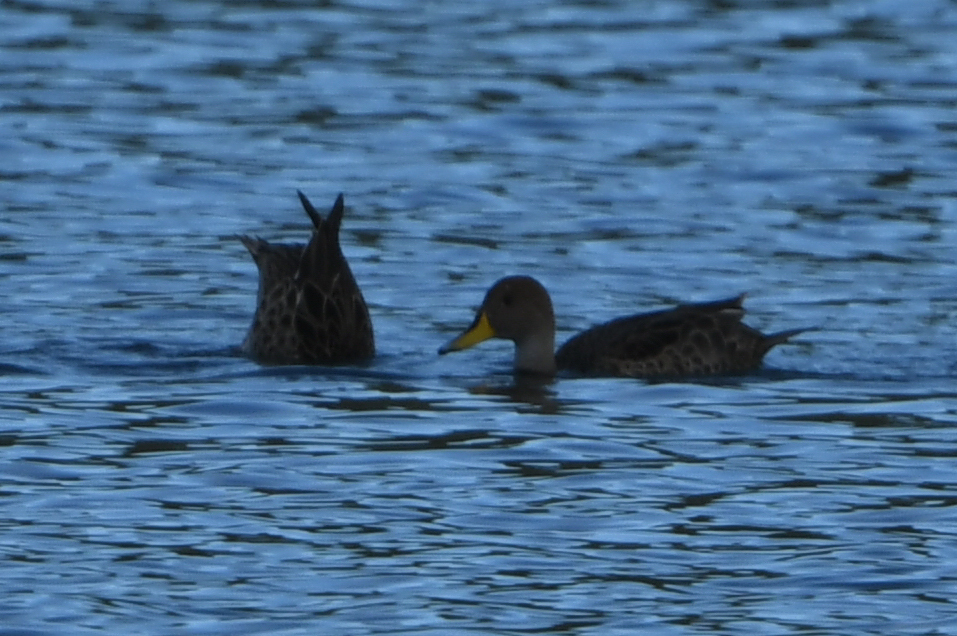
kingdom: Animalia
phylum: Chordata
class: Aves
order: Anseriformes
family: Anatidae
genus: Anas
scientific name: Anas georgica
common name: Yellow-billed pintail
